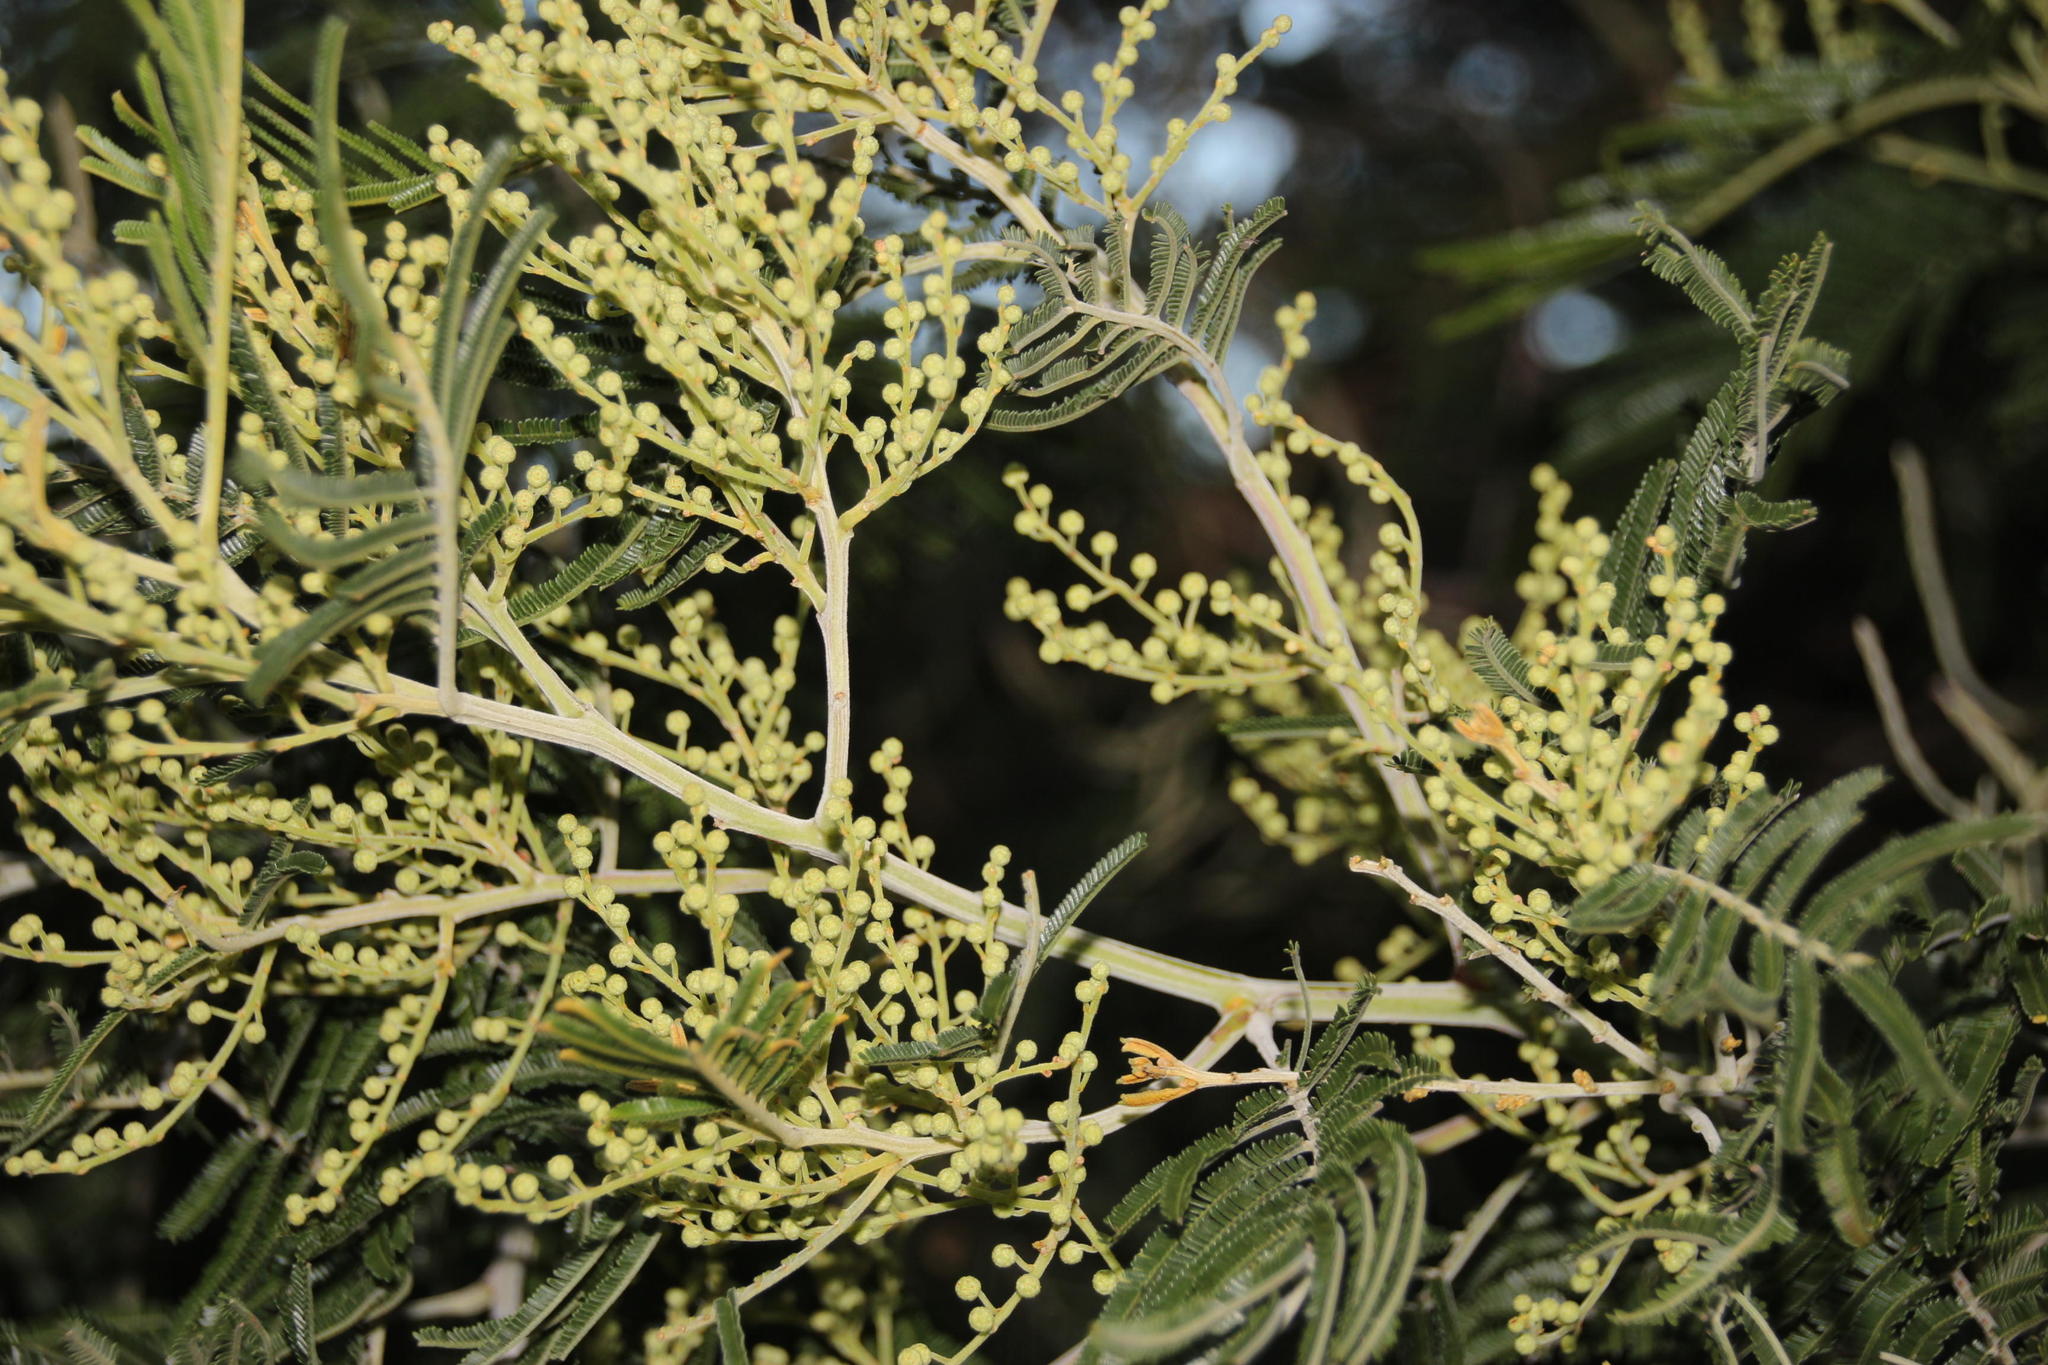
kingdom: Plantae
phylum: Tracheophyta
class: Magnoliopsida
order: Fabales
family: Fabaceae
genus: Acacia
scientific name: Acacia mearnsii
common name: Black wattle
